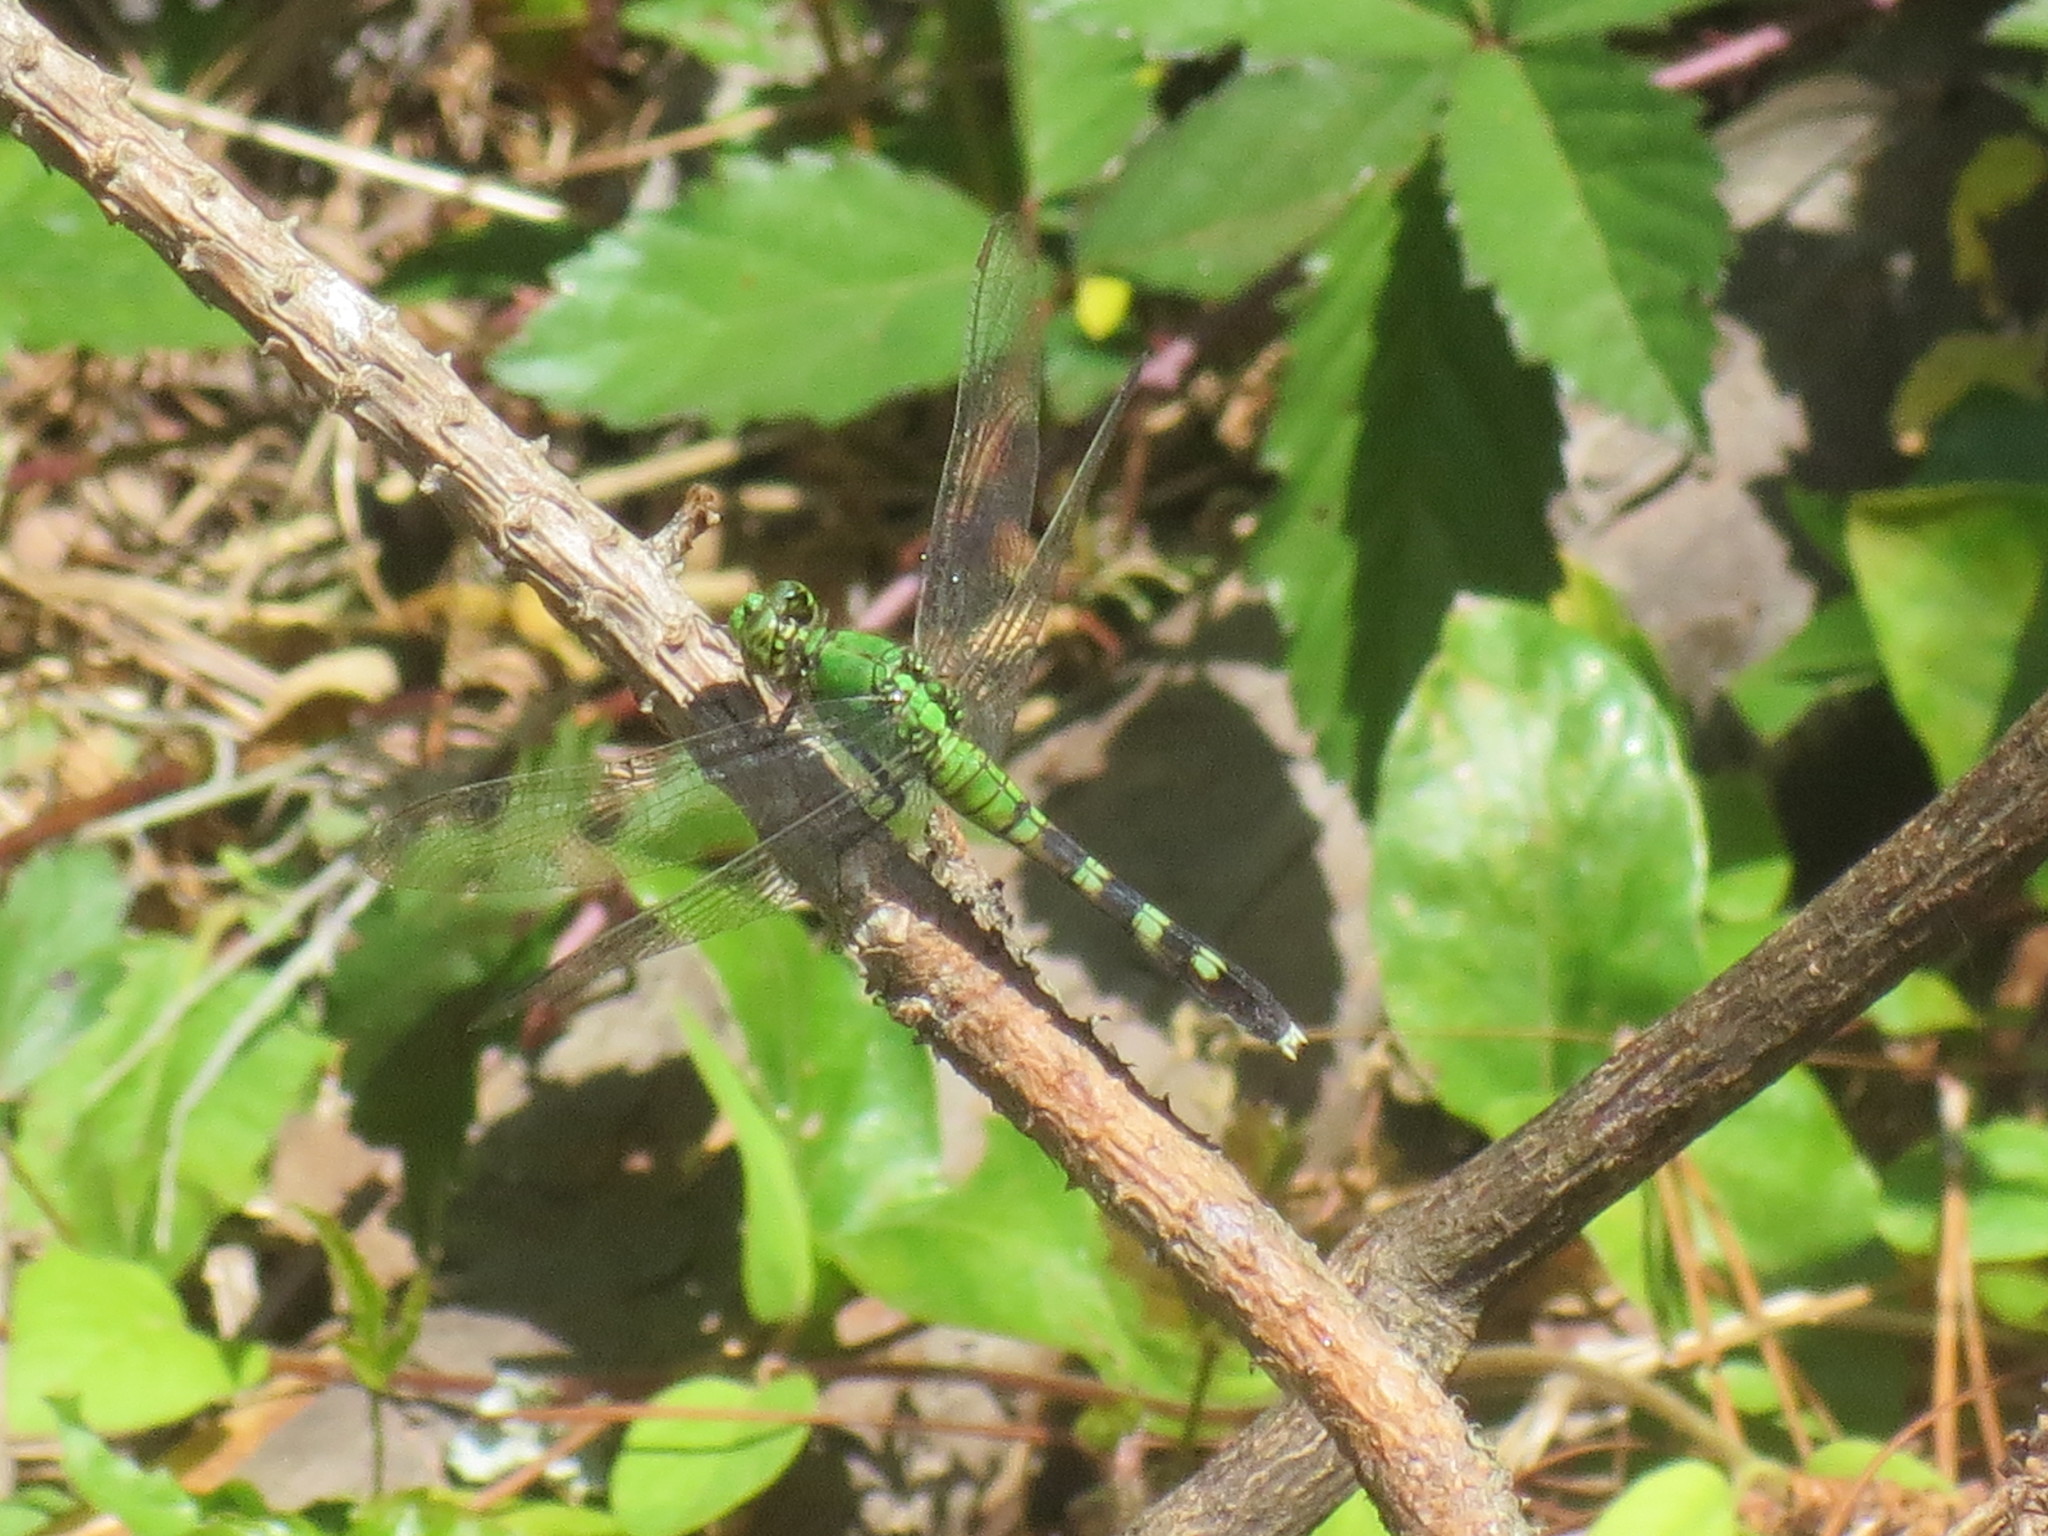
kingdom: Animalia
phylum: Arthropoda
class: Insecta
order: Odonata
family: Libellulidae
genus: Erythemis
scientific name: Erythemis simplicicollis
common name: Eastern pondhawk
